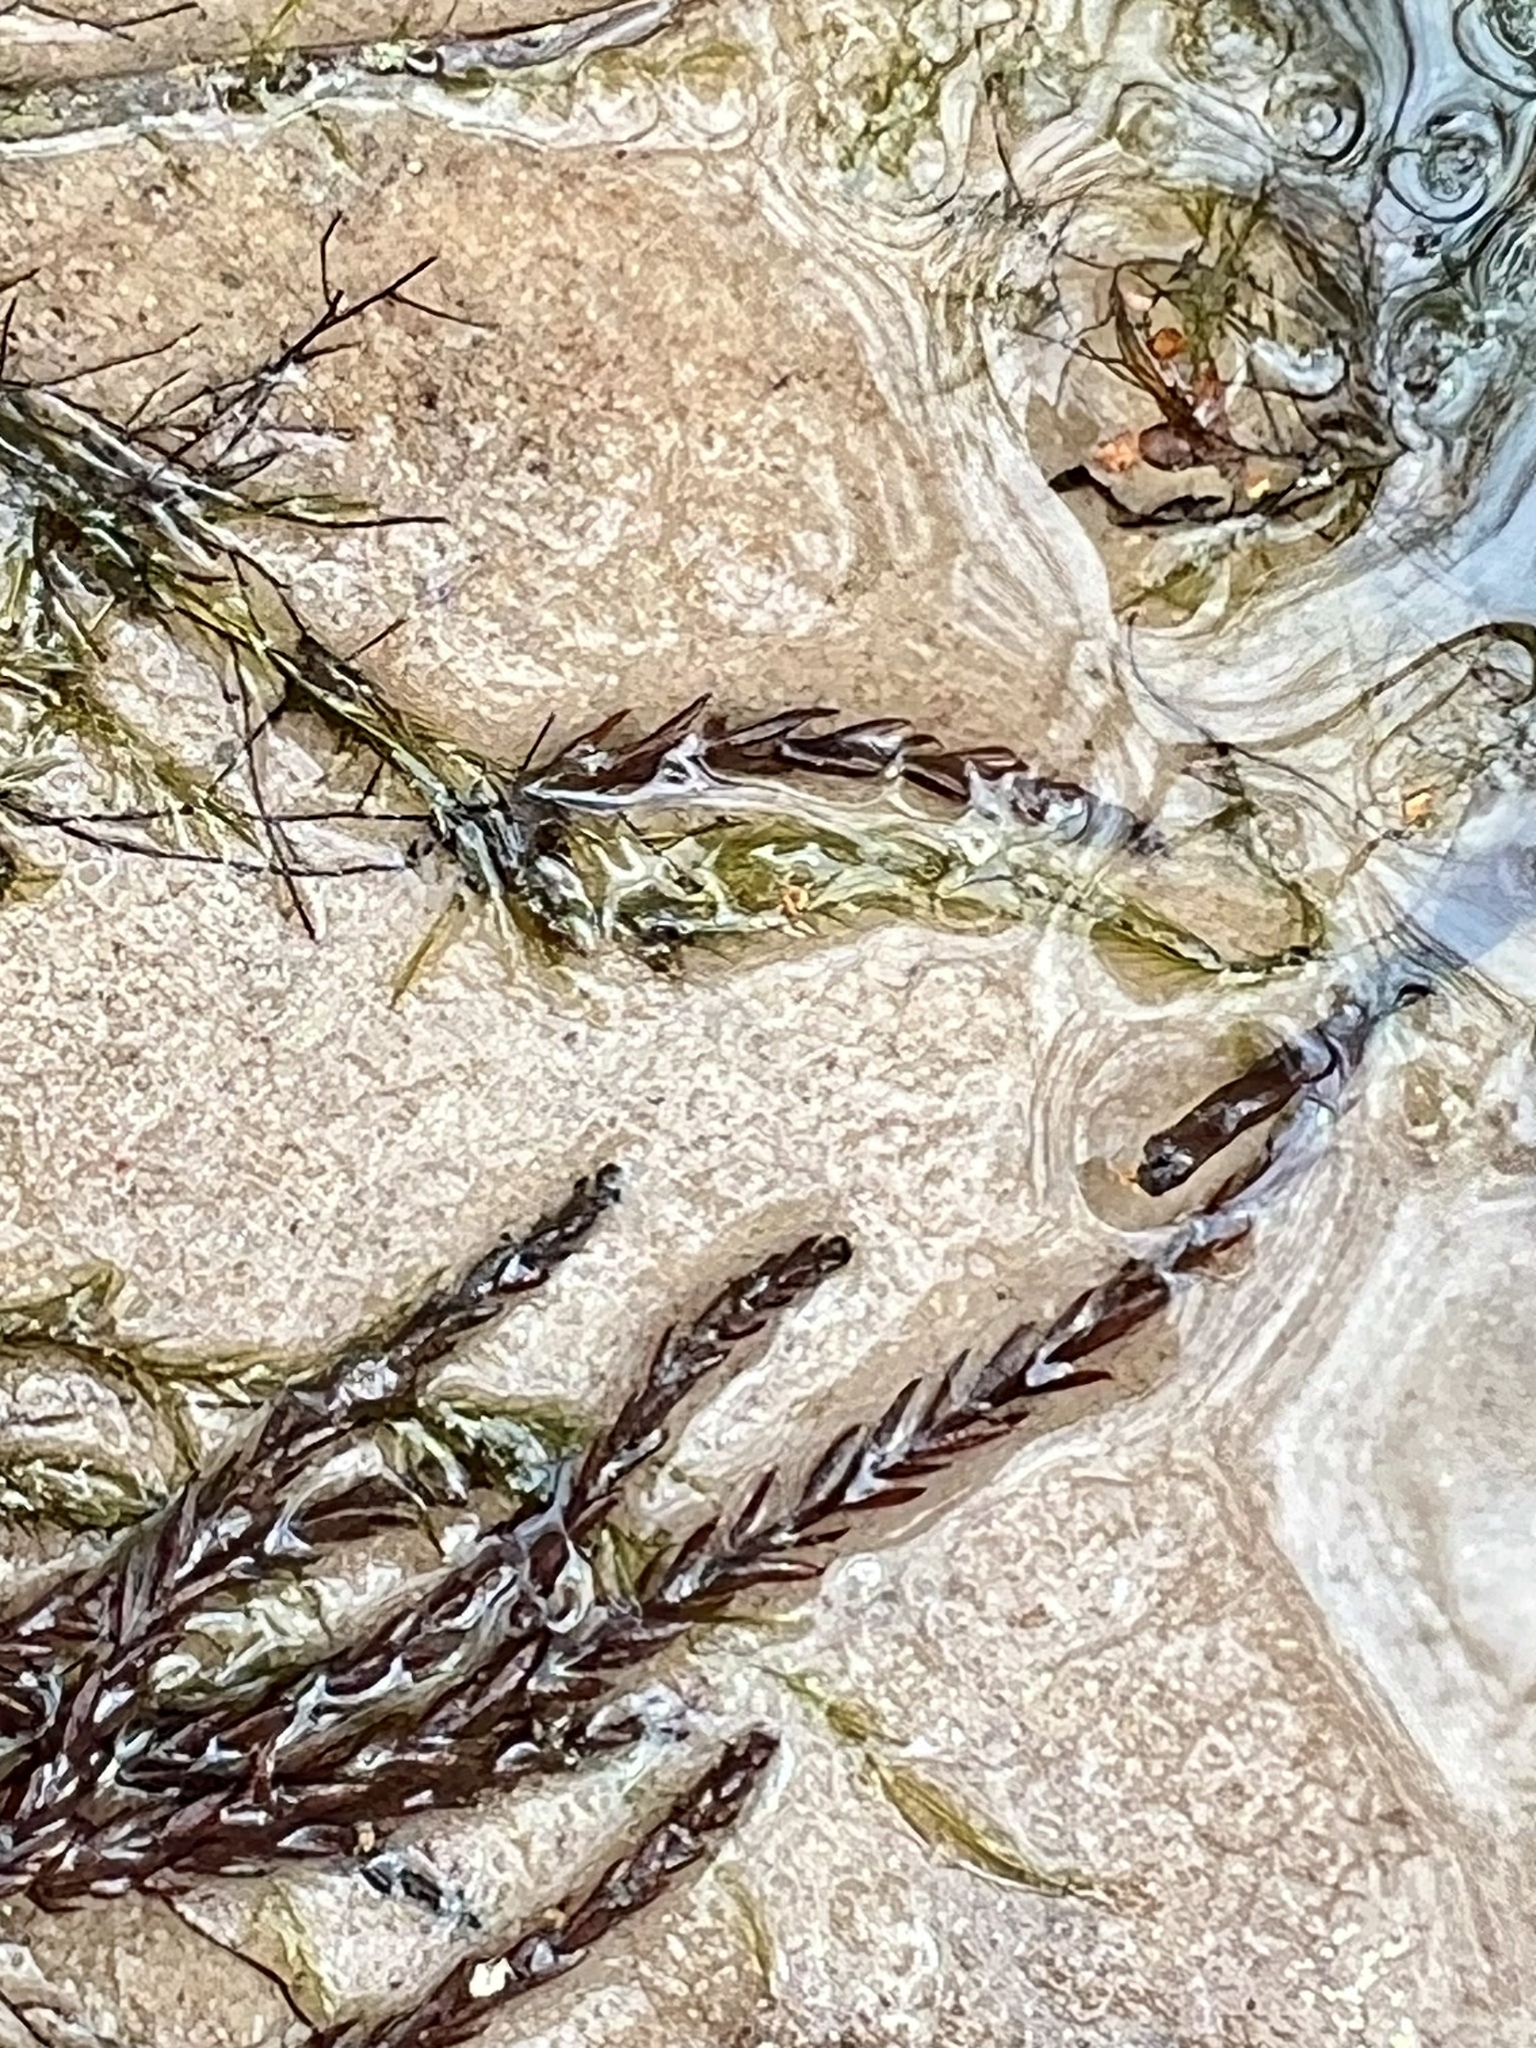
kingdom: Plantae
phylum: Bryophyta
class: Bryopsida
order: Hypnales
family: Fontinalaceae
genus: Fontinalis
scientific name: Fontinalis sphagnifolia
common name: Sphagnum-like water moss
